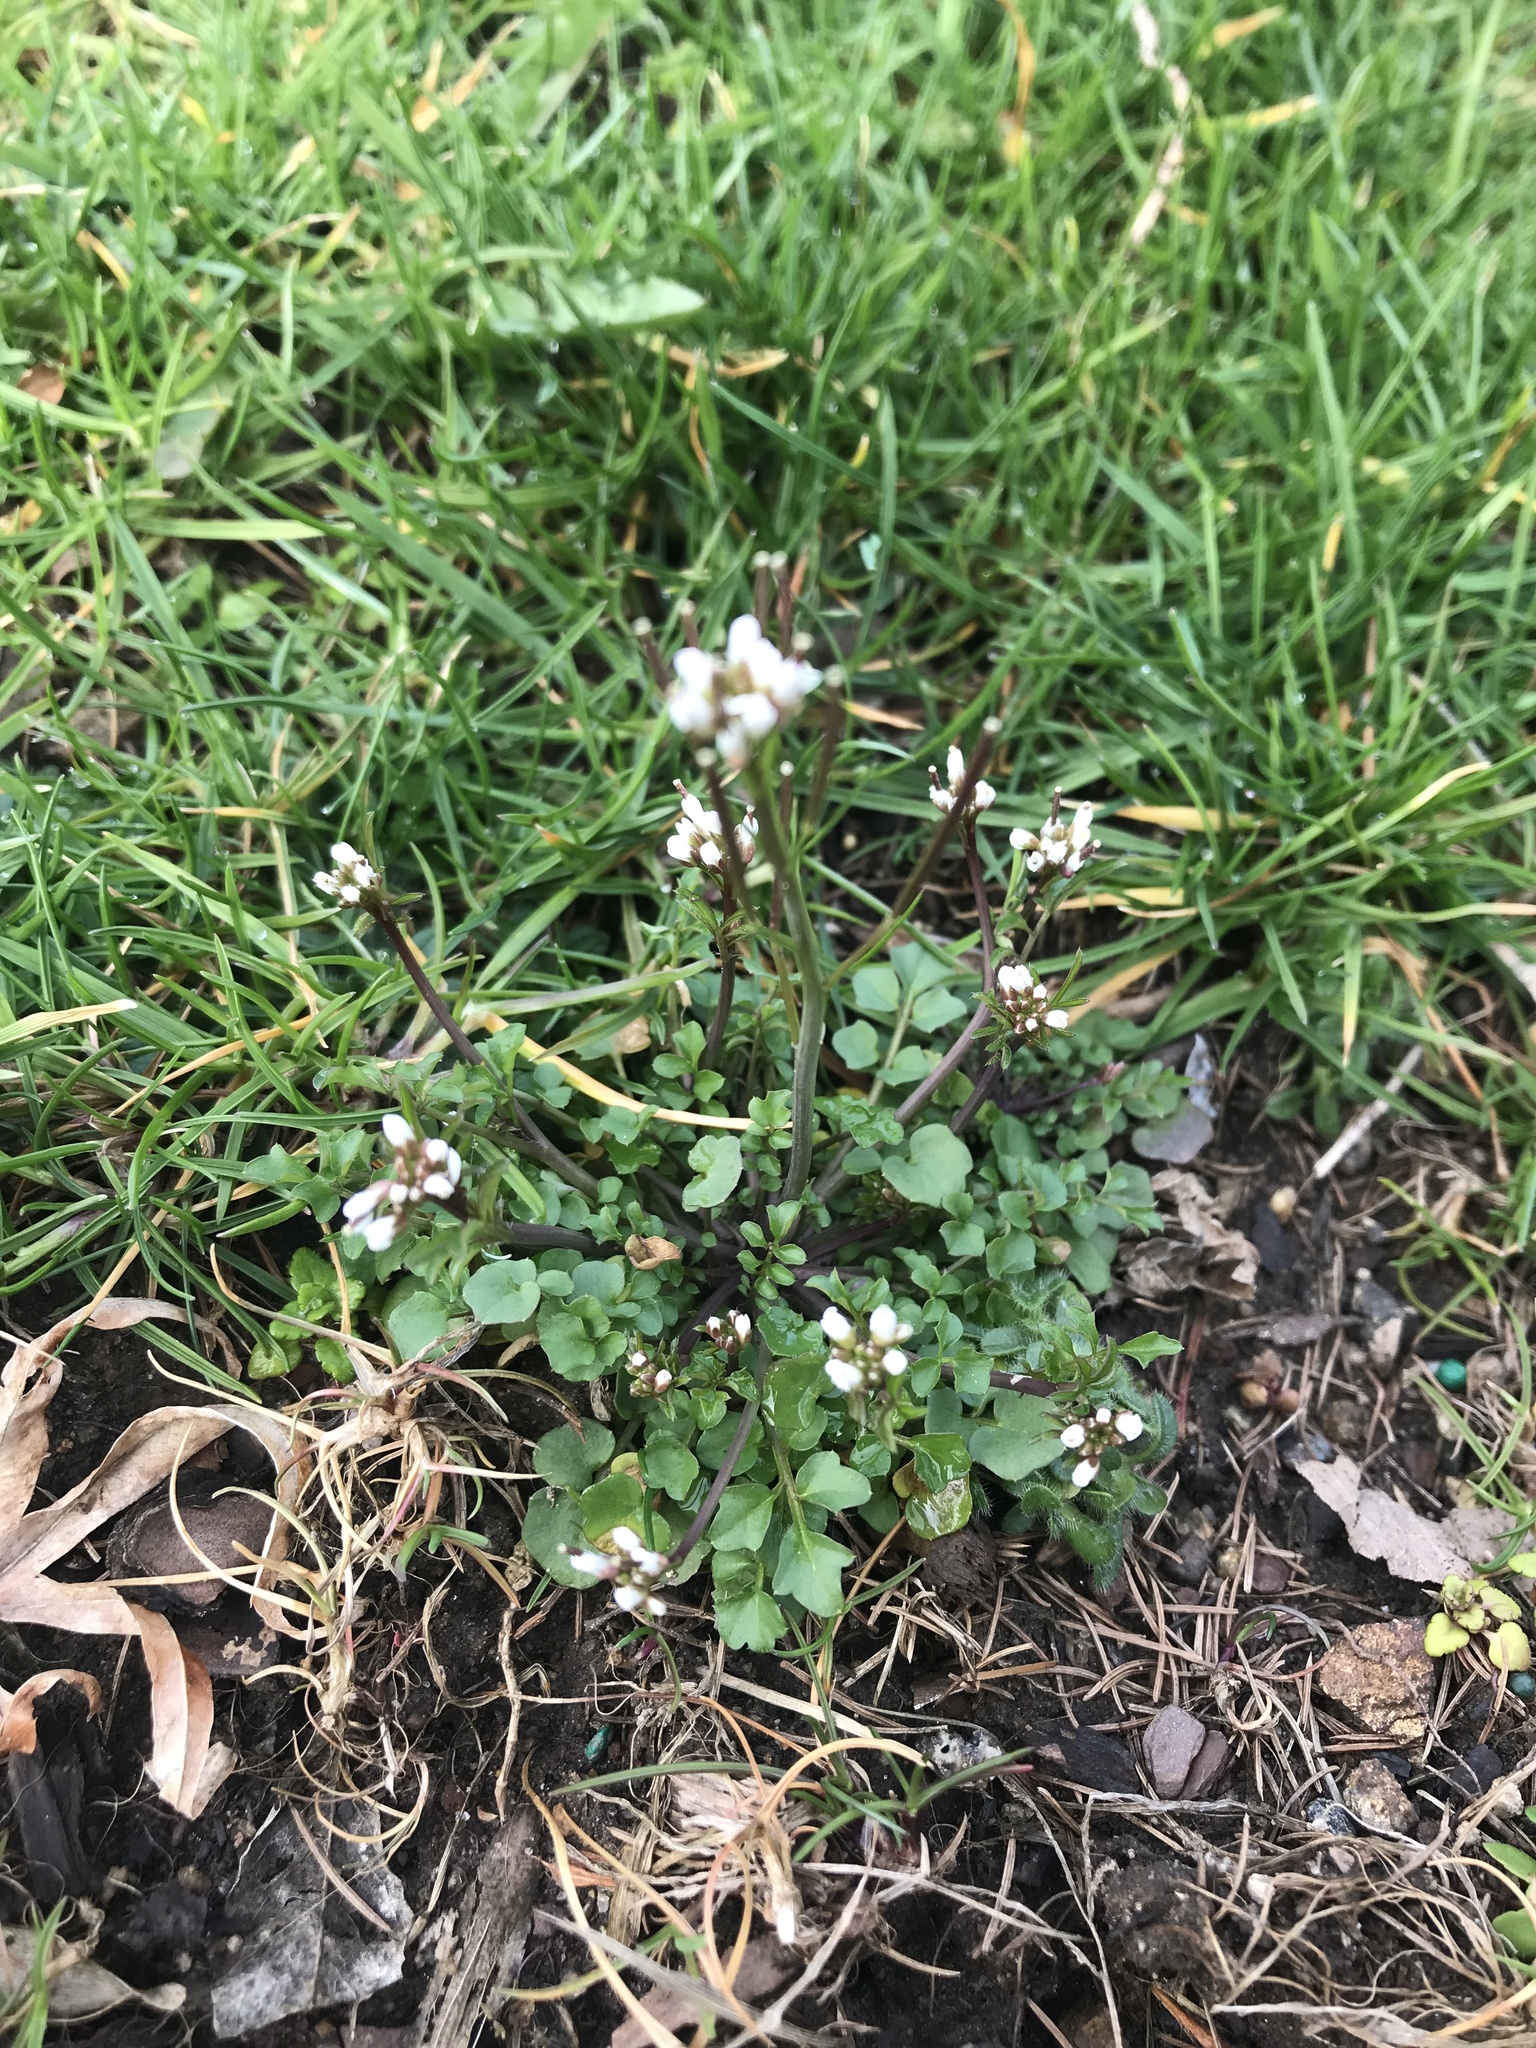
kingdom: Plantae
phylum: Tracheophyta
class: Magnoliopsida
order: Brassicales
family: Brassicaceae
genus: Cardamine
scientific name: Cardamine hirsuta
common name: Hairy bittercress
